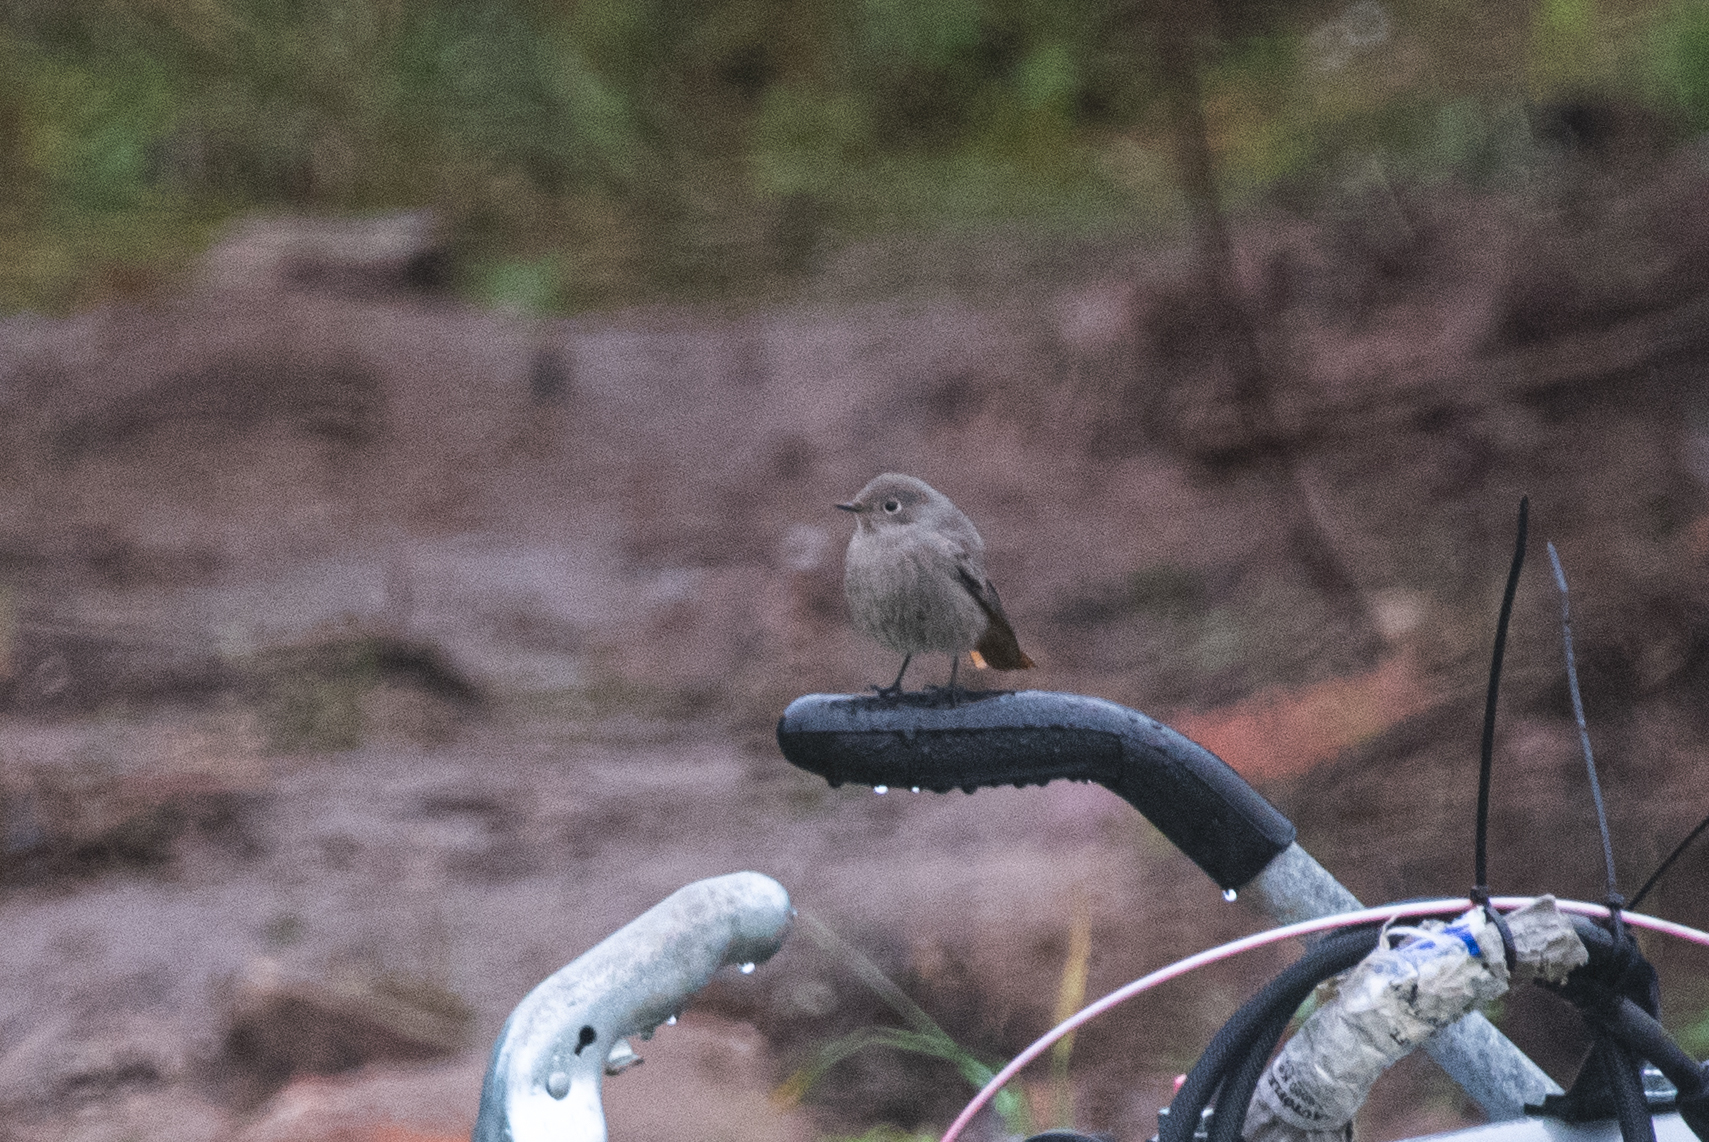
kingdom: Animalia
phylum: Chordata
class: Aves
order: Passeriformes
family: Muscicapidae
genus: Phoenicurus
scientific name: Phoenicurus ochruros
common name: Black redstart
